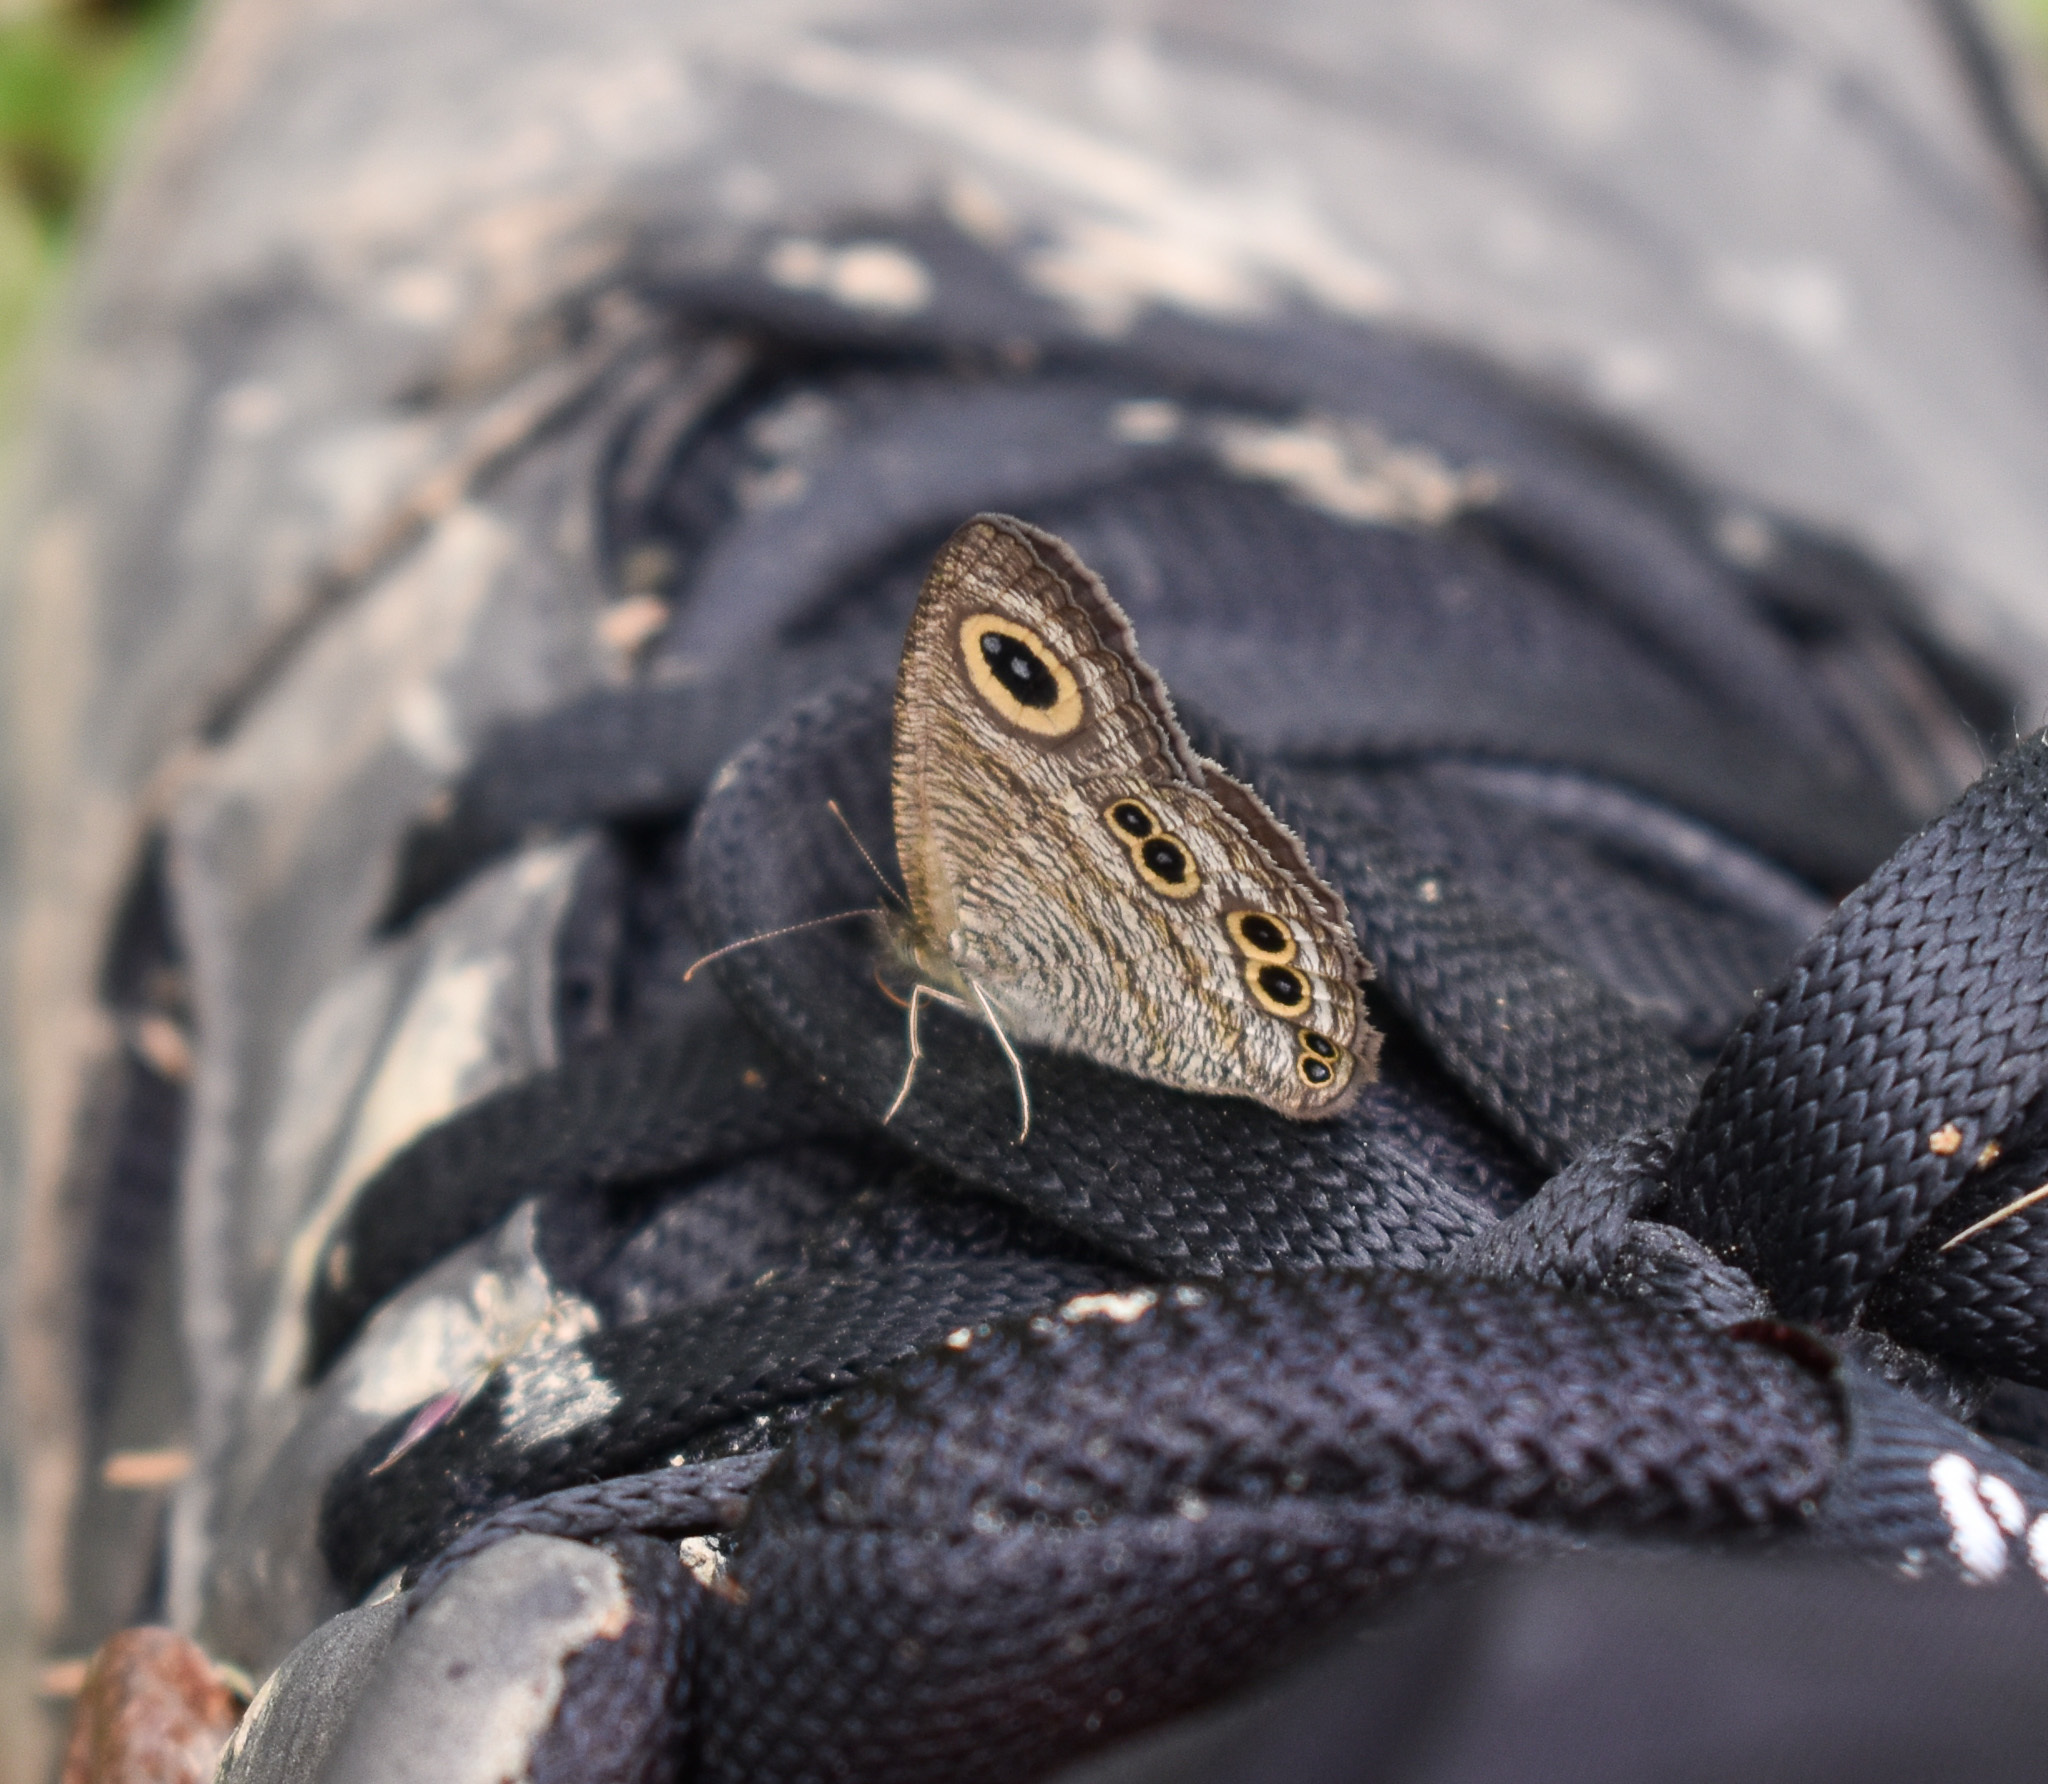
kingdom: Animalia
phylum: Arthropoda
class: Insecta
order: Lepidoptera
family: Nymphalidae
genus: Ypthima
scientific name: Ypthima baldus
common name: Common five-ring
